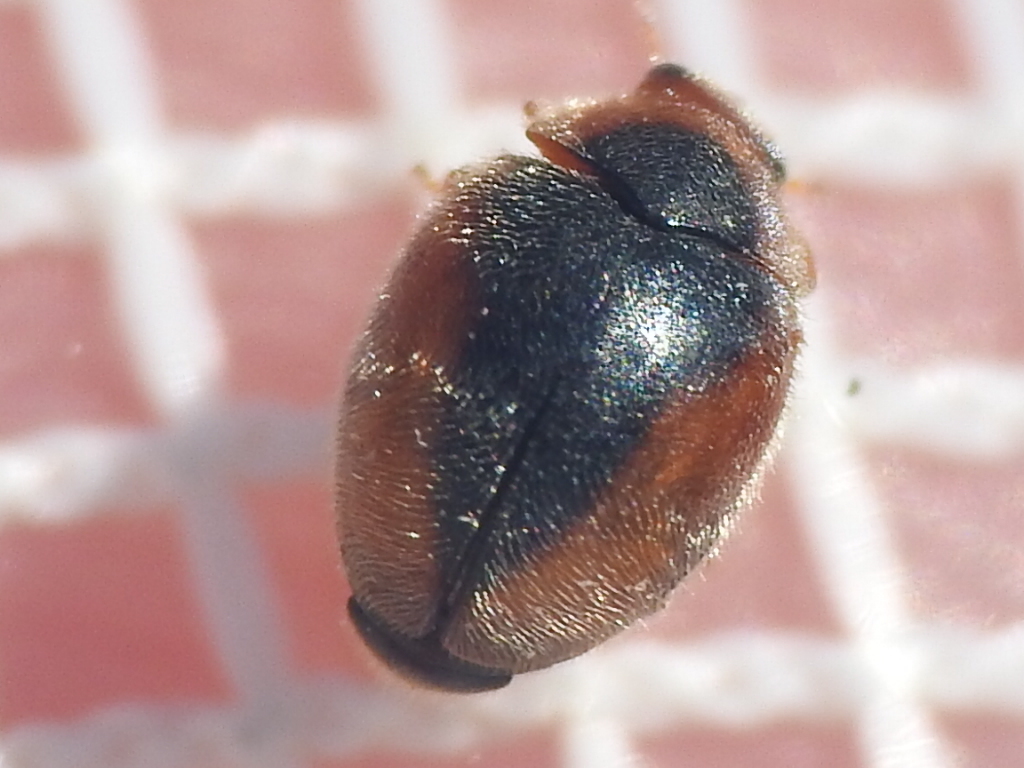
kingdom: Animalia
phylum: Arthropoda
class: Insecta
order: Coleoptera
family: Coccinellidae
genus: Scymnus
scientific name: Scymnus loewii
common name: Dusky lady beetle
